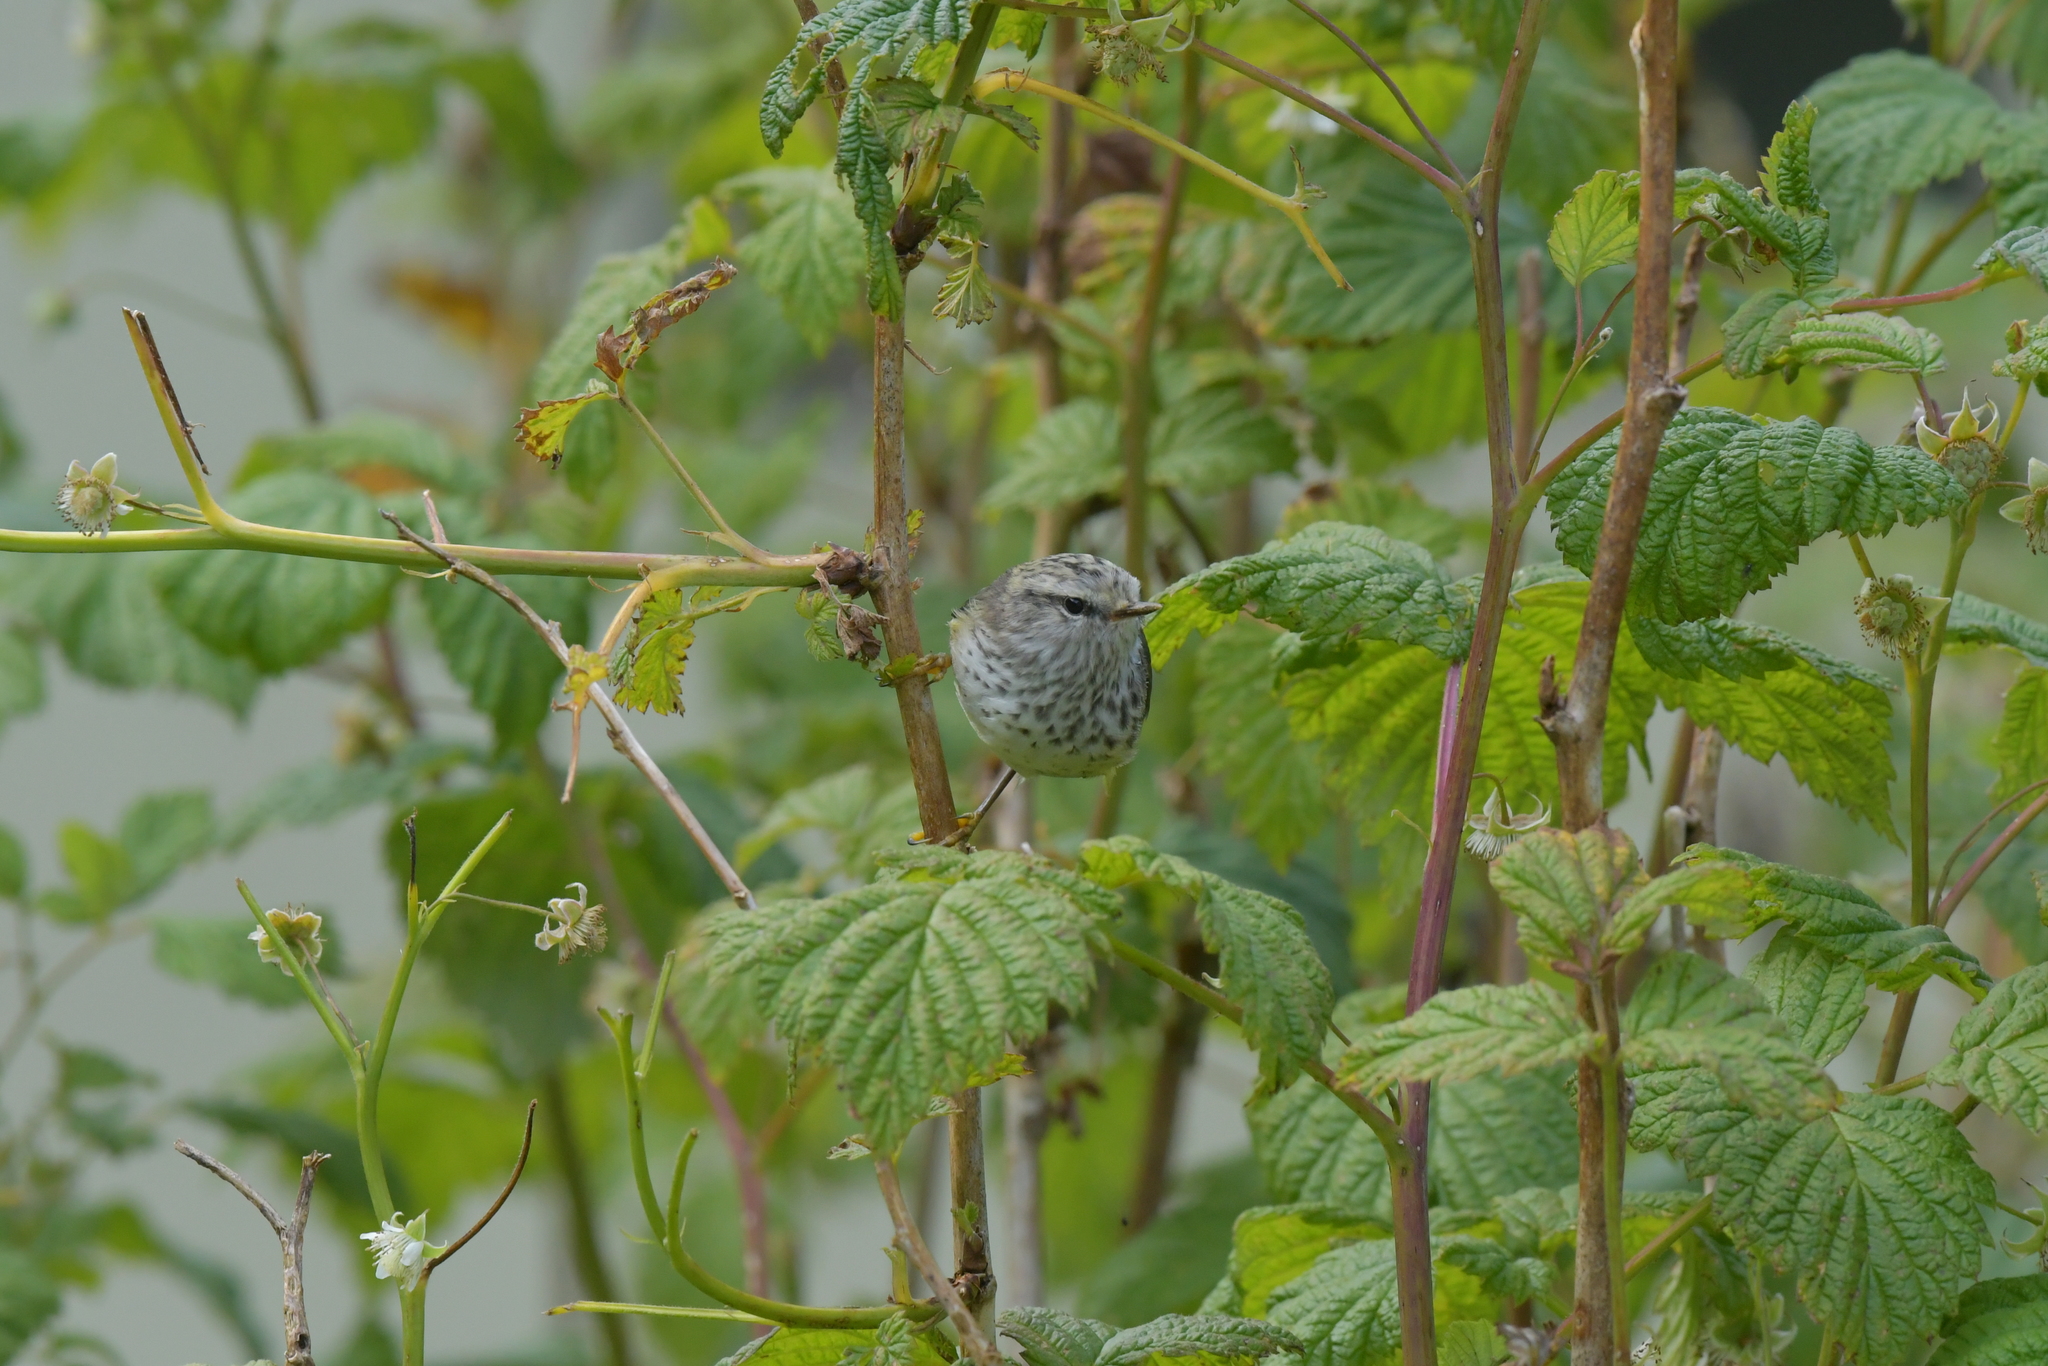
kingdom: Animalia
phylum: Chordata
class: Aves
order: Passeriformes
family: Acanthisittidae
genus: Acanthisitta
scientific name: Acanthisitta chloris
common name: Rifleman
